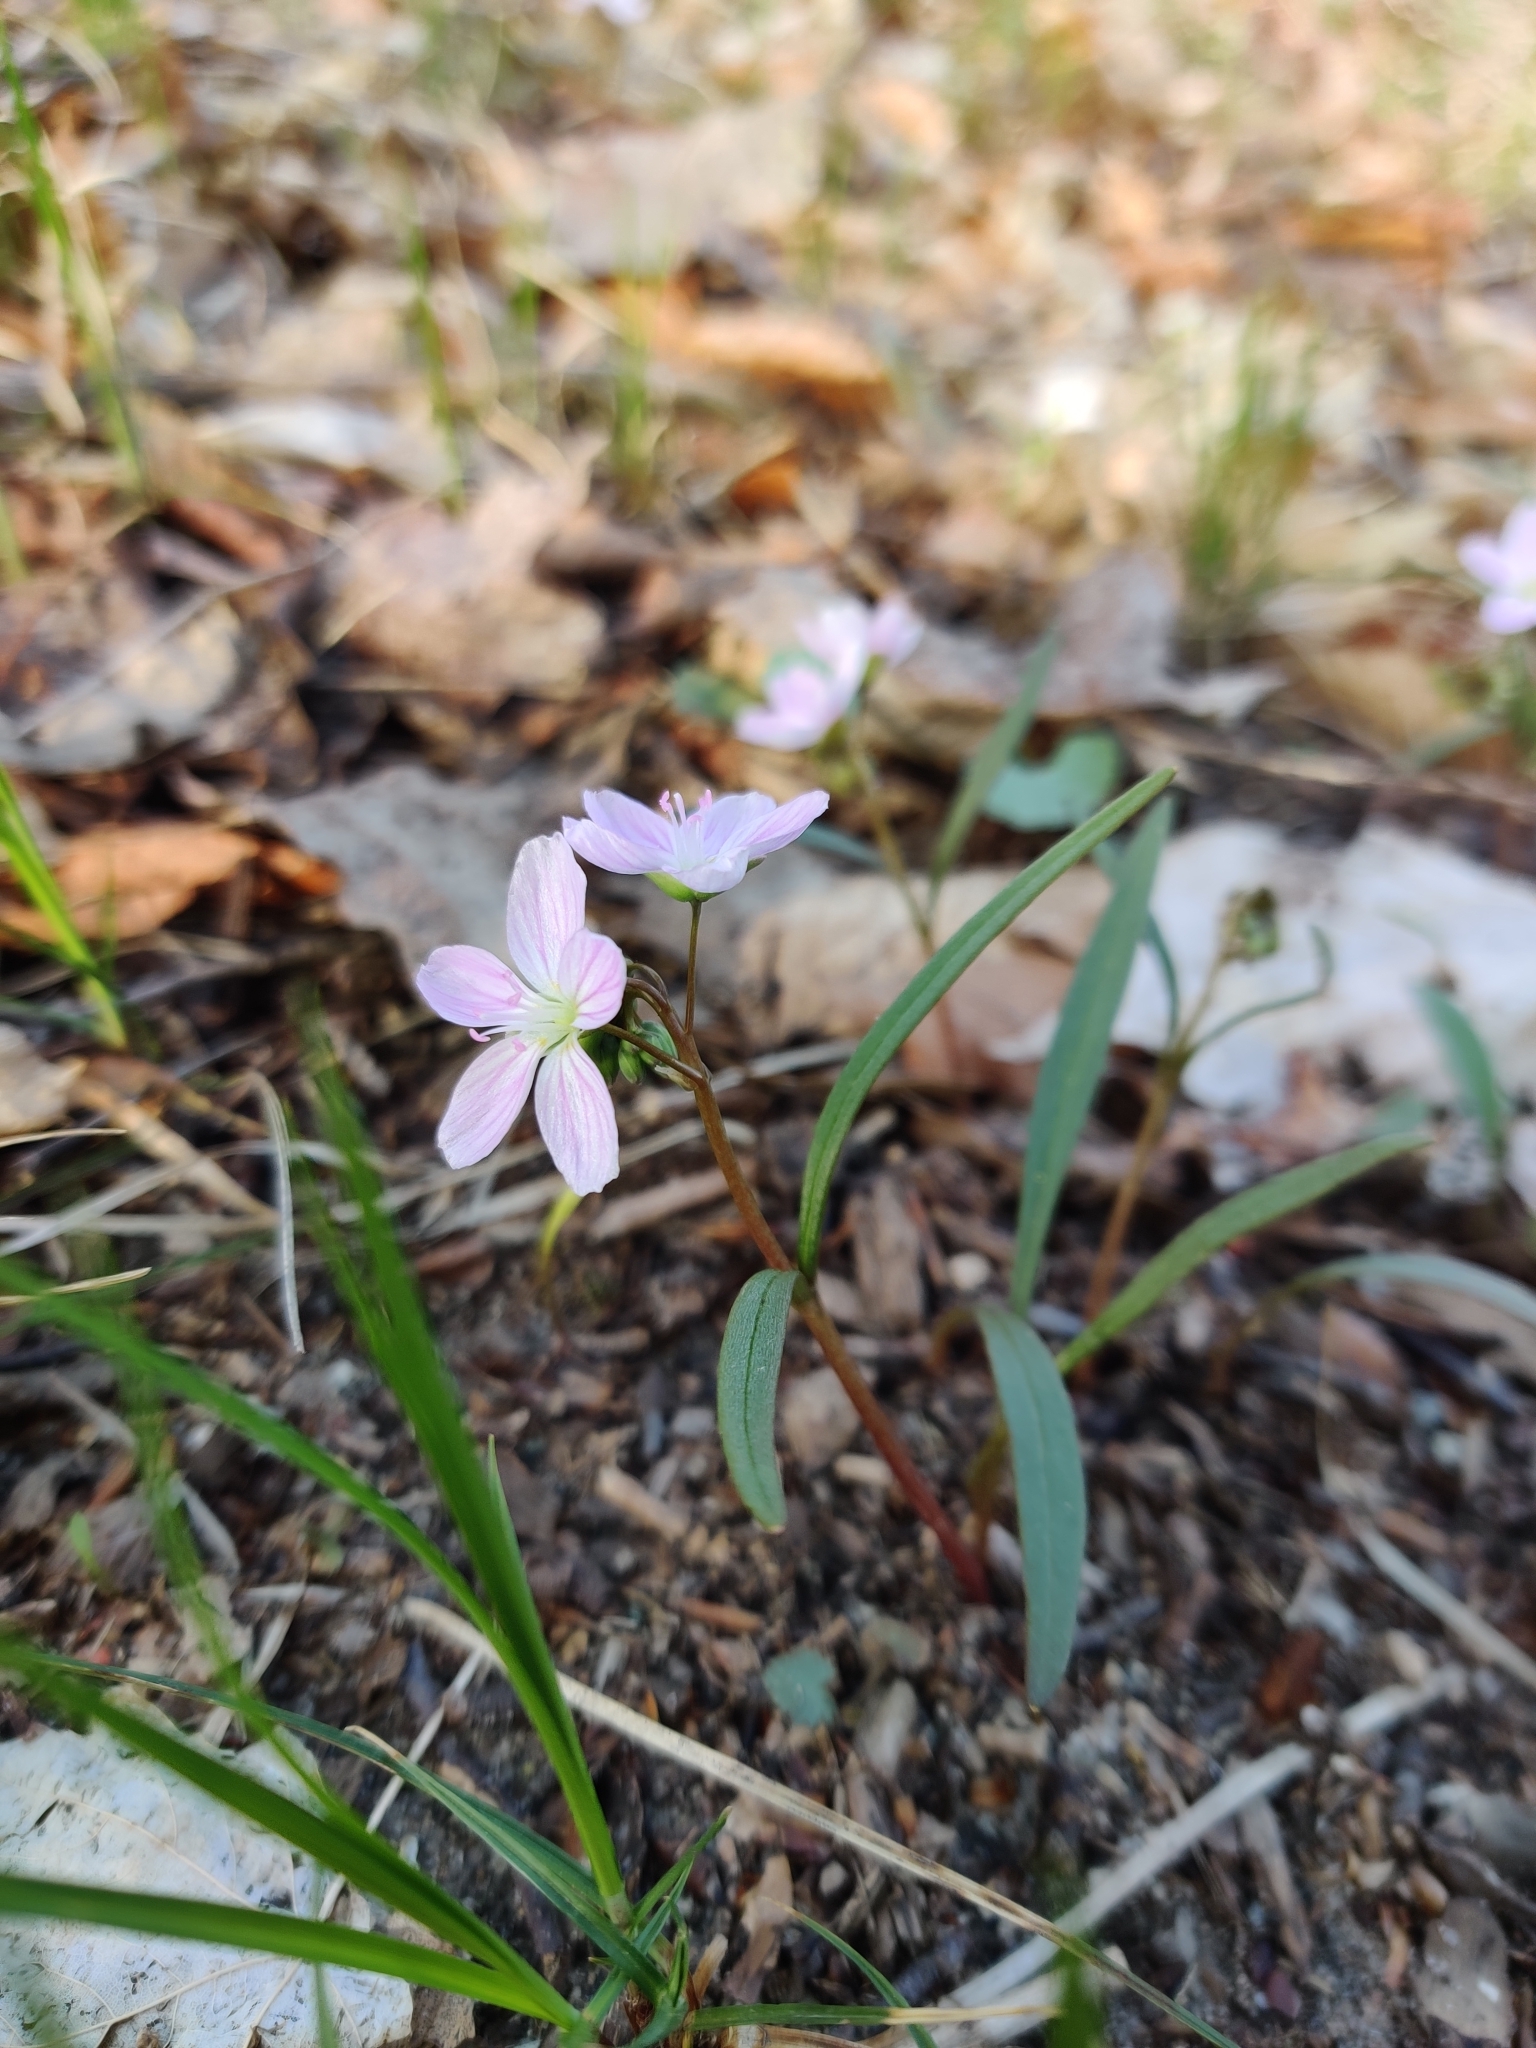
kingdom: Plantae
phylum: Tracheophyta
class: Magnoliopsida
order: Caryophyllales
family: Montiaceae
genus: Claytonia
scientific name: Claytonia virginica
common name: Virginia springbeauty
